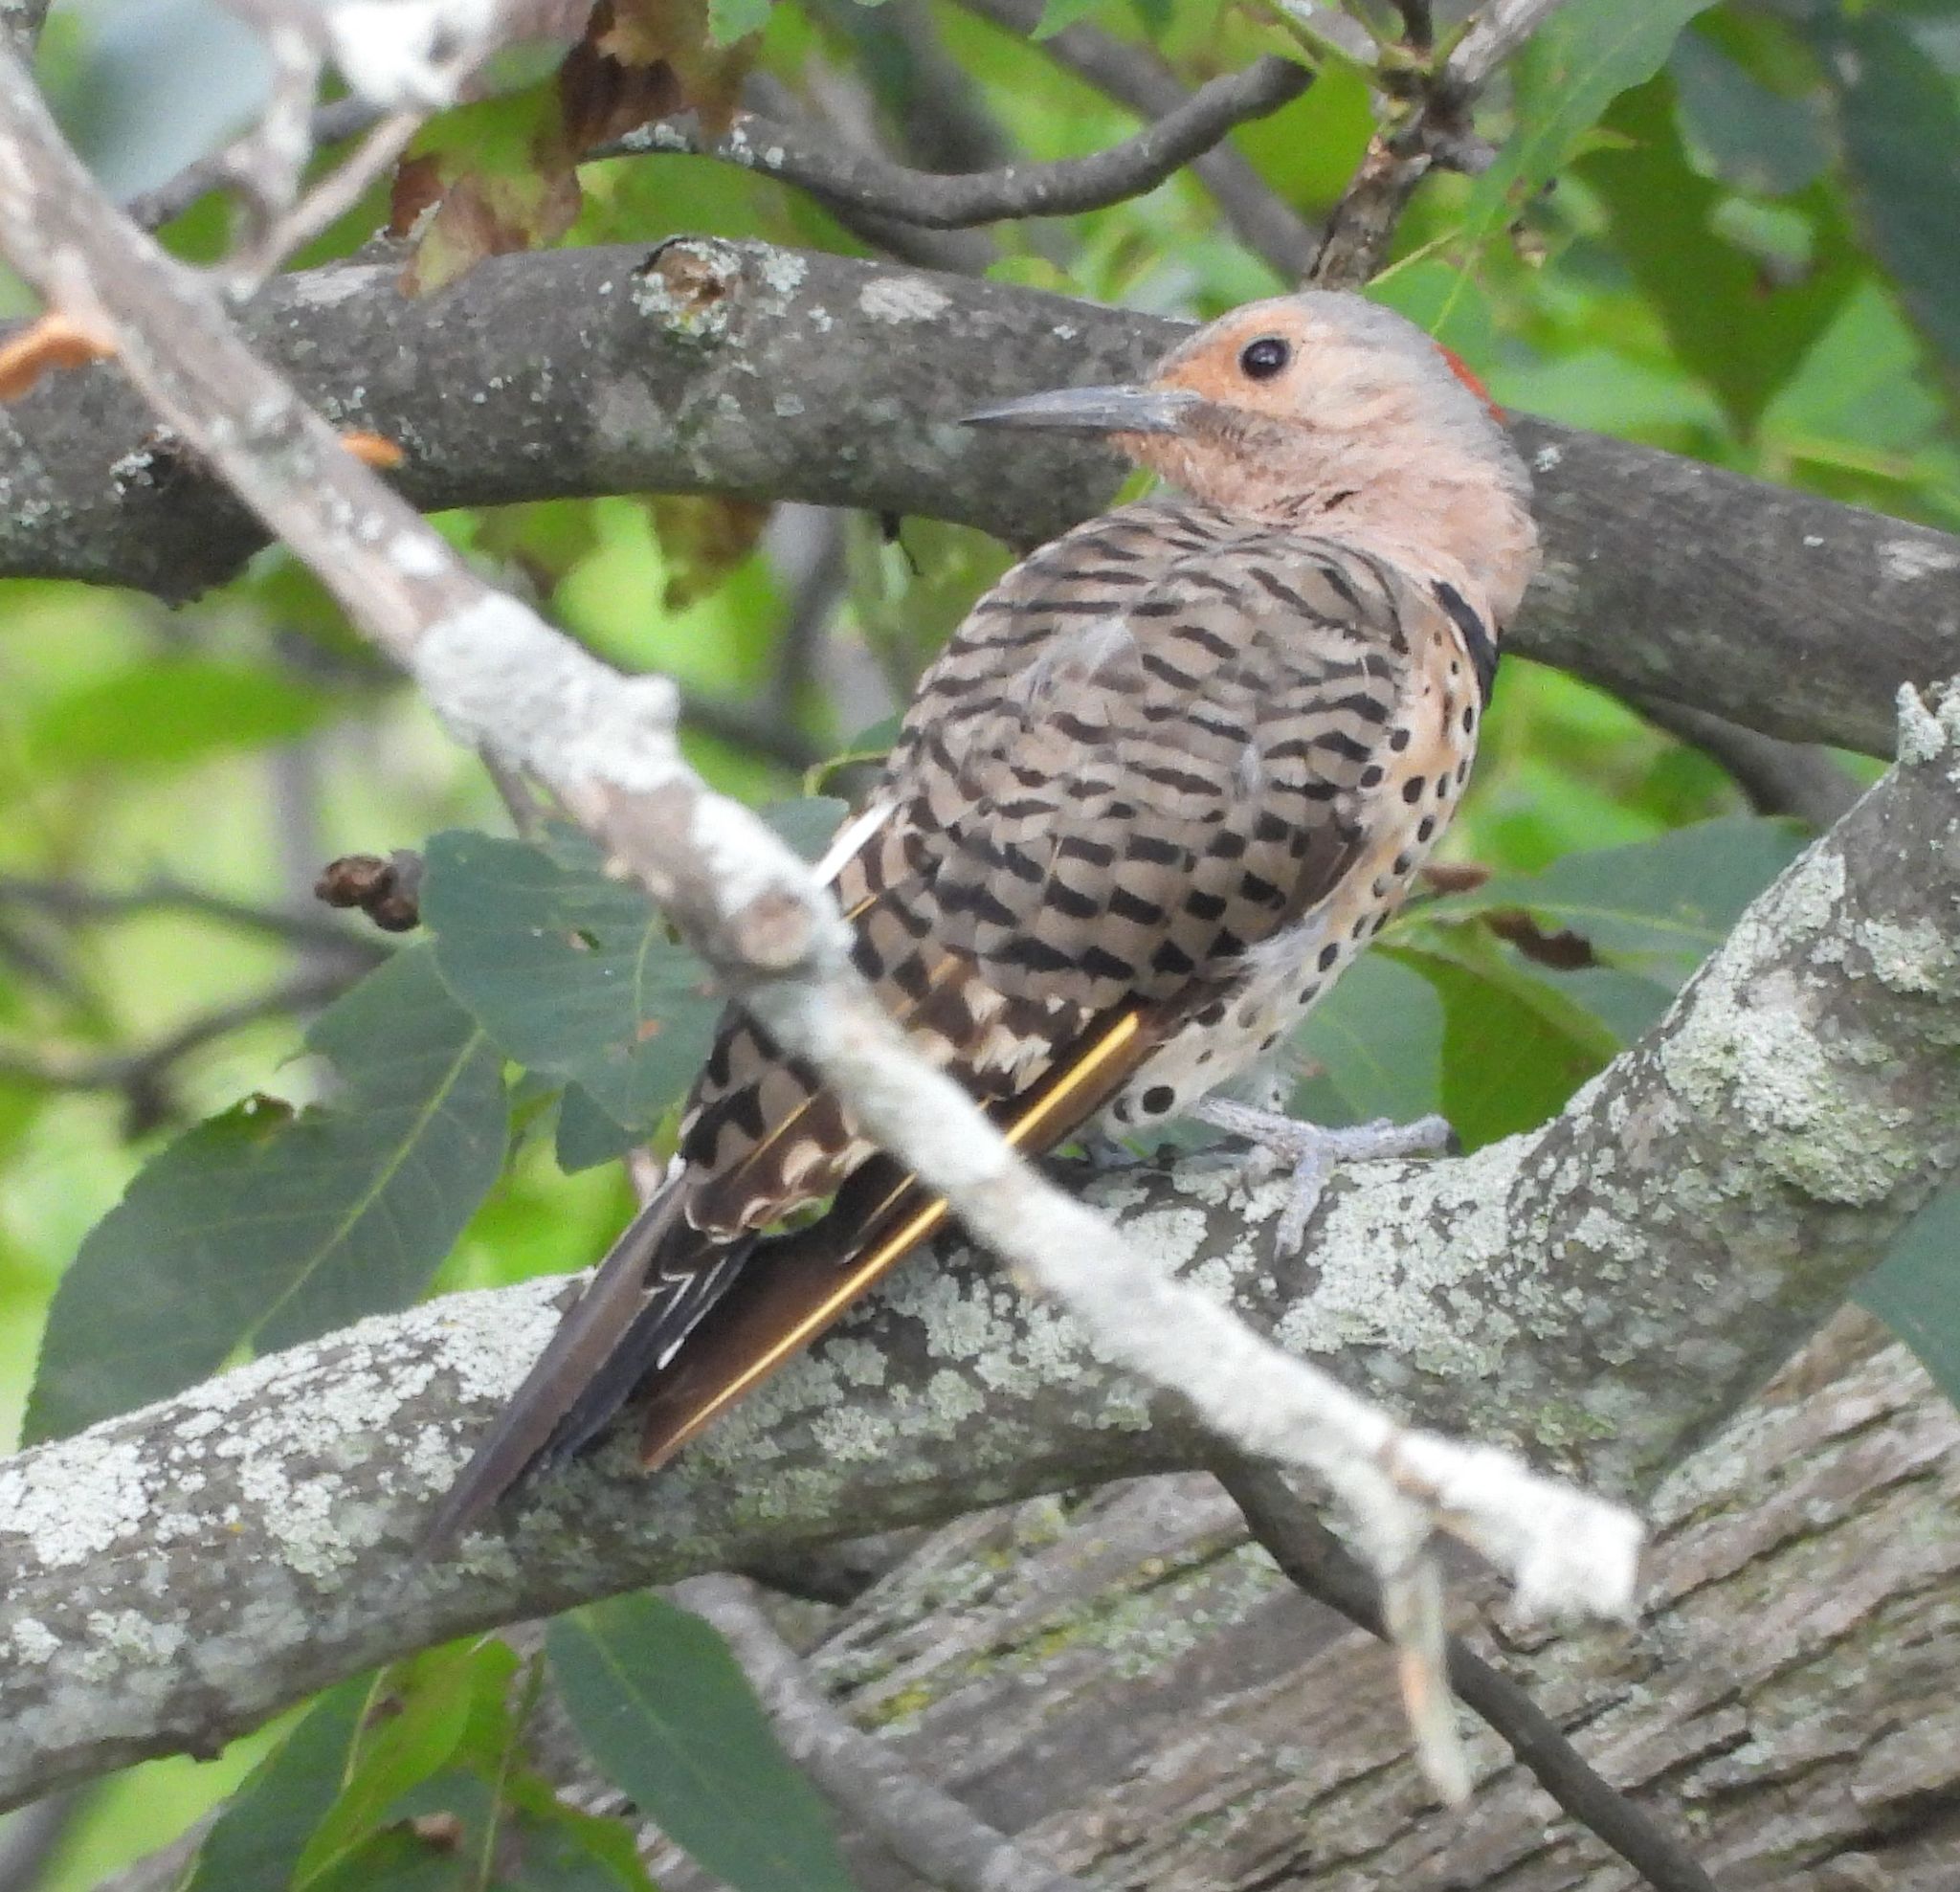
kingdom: Animalia
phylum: Chordata
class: Aves
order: Piciformes
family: Picidae
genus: Colaptes
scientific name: Colaptes auratus
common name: Northern flicker
